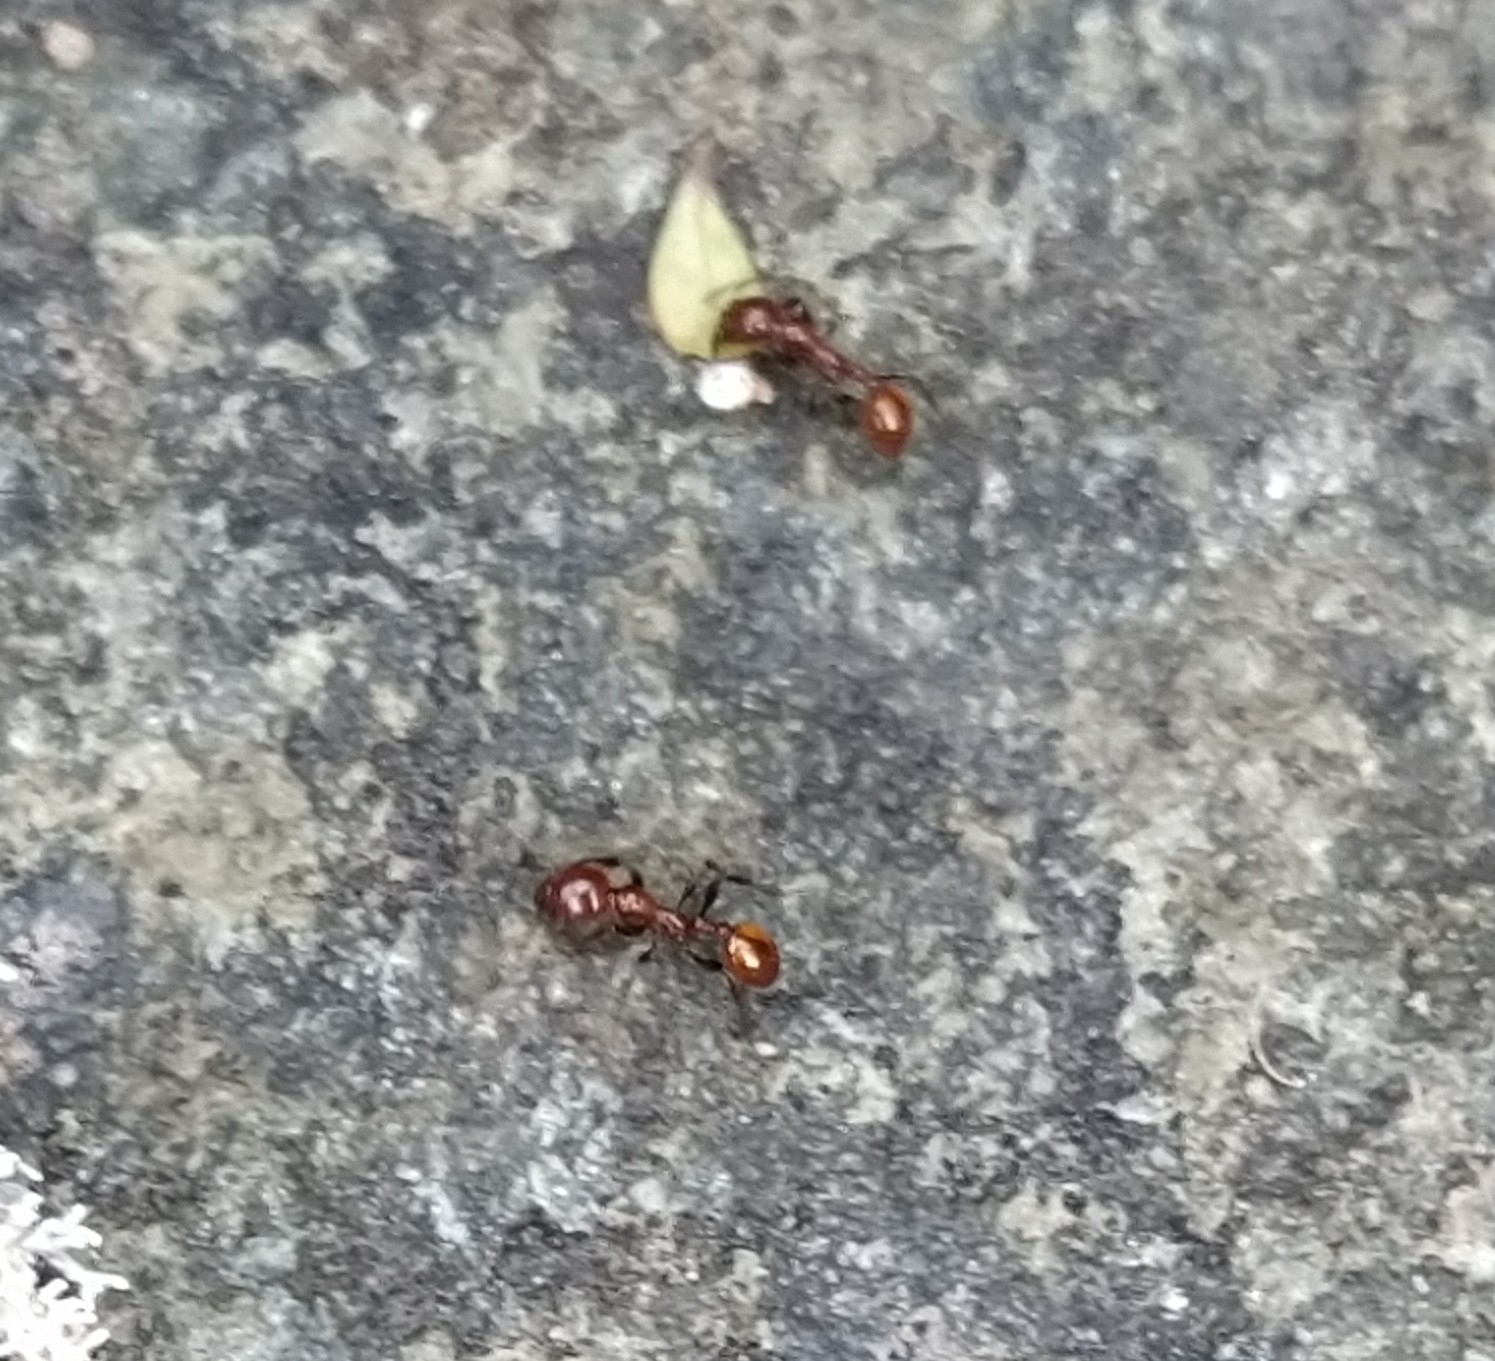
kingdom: Animalia
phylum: Arthropoda
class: Insecta
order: Hymenoptera
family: Formicidae
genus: Monomorium
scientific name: Monomorium antarcticum
